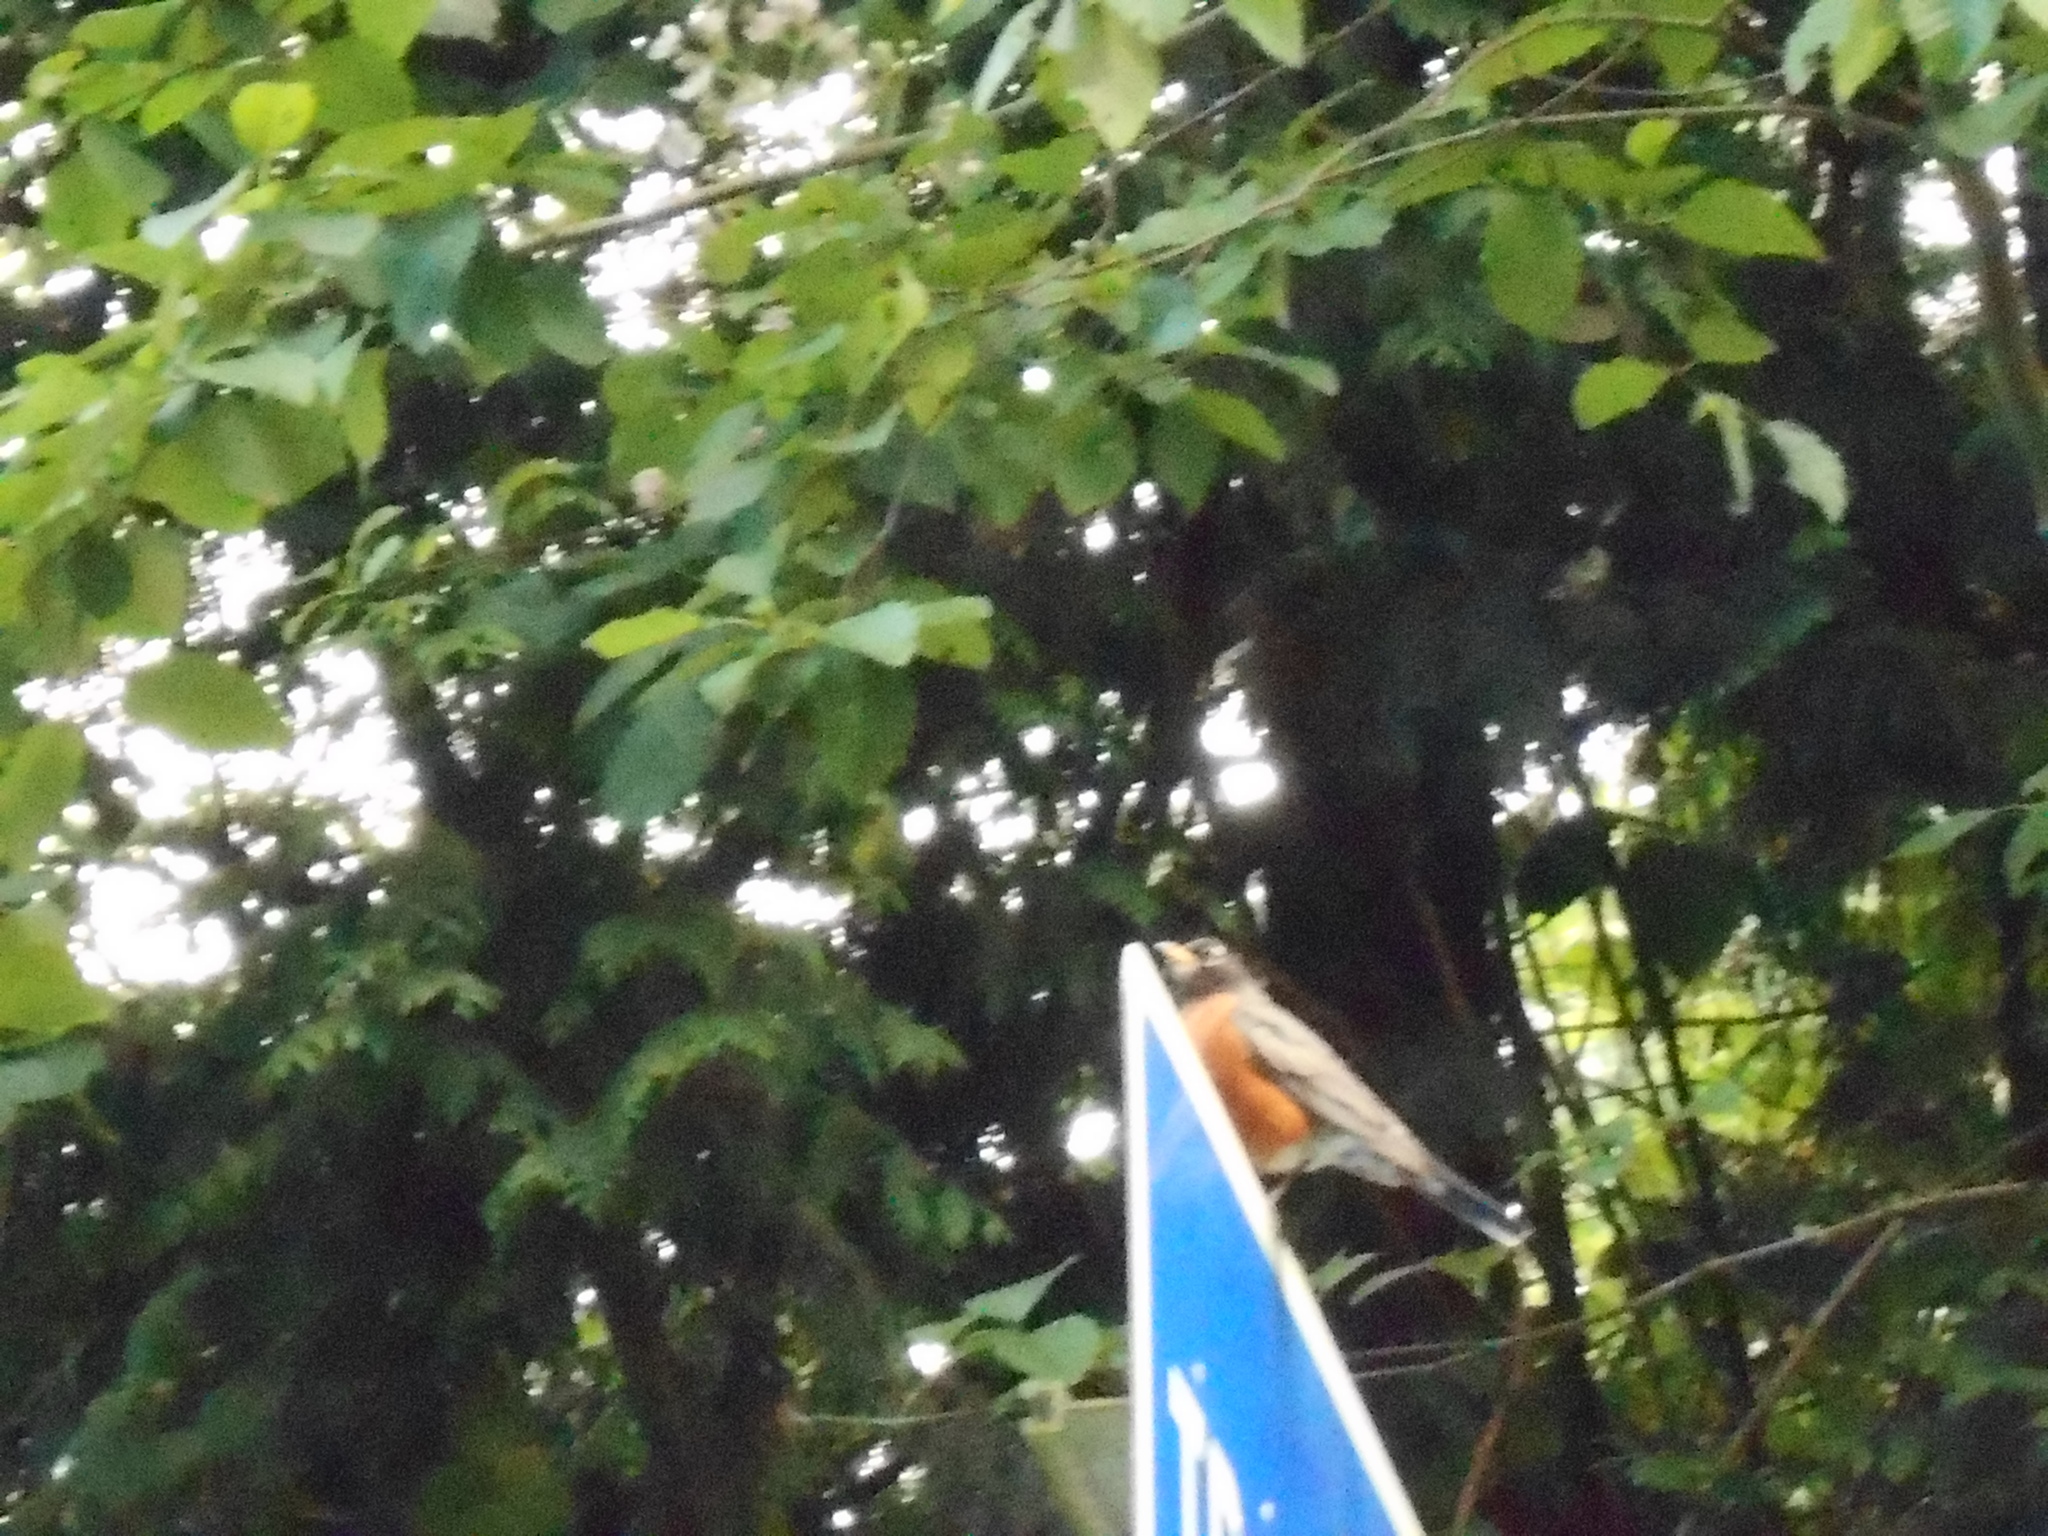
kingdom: Animalia
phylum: Chordata
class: Aves
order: Passeriformes
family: Turdidae
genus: Turdus
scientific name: Turdus migratorius
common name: American robin
